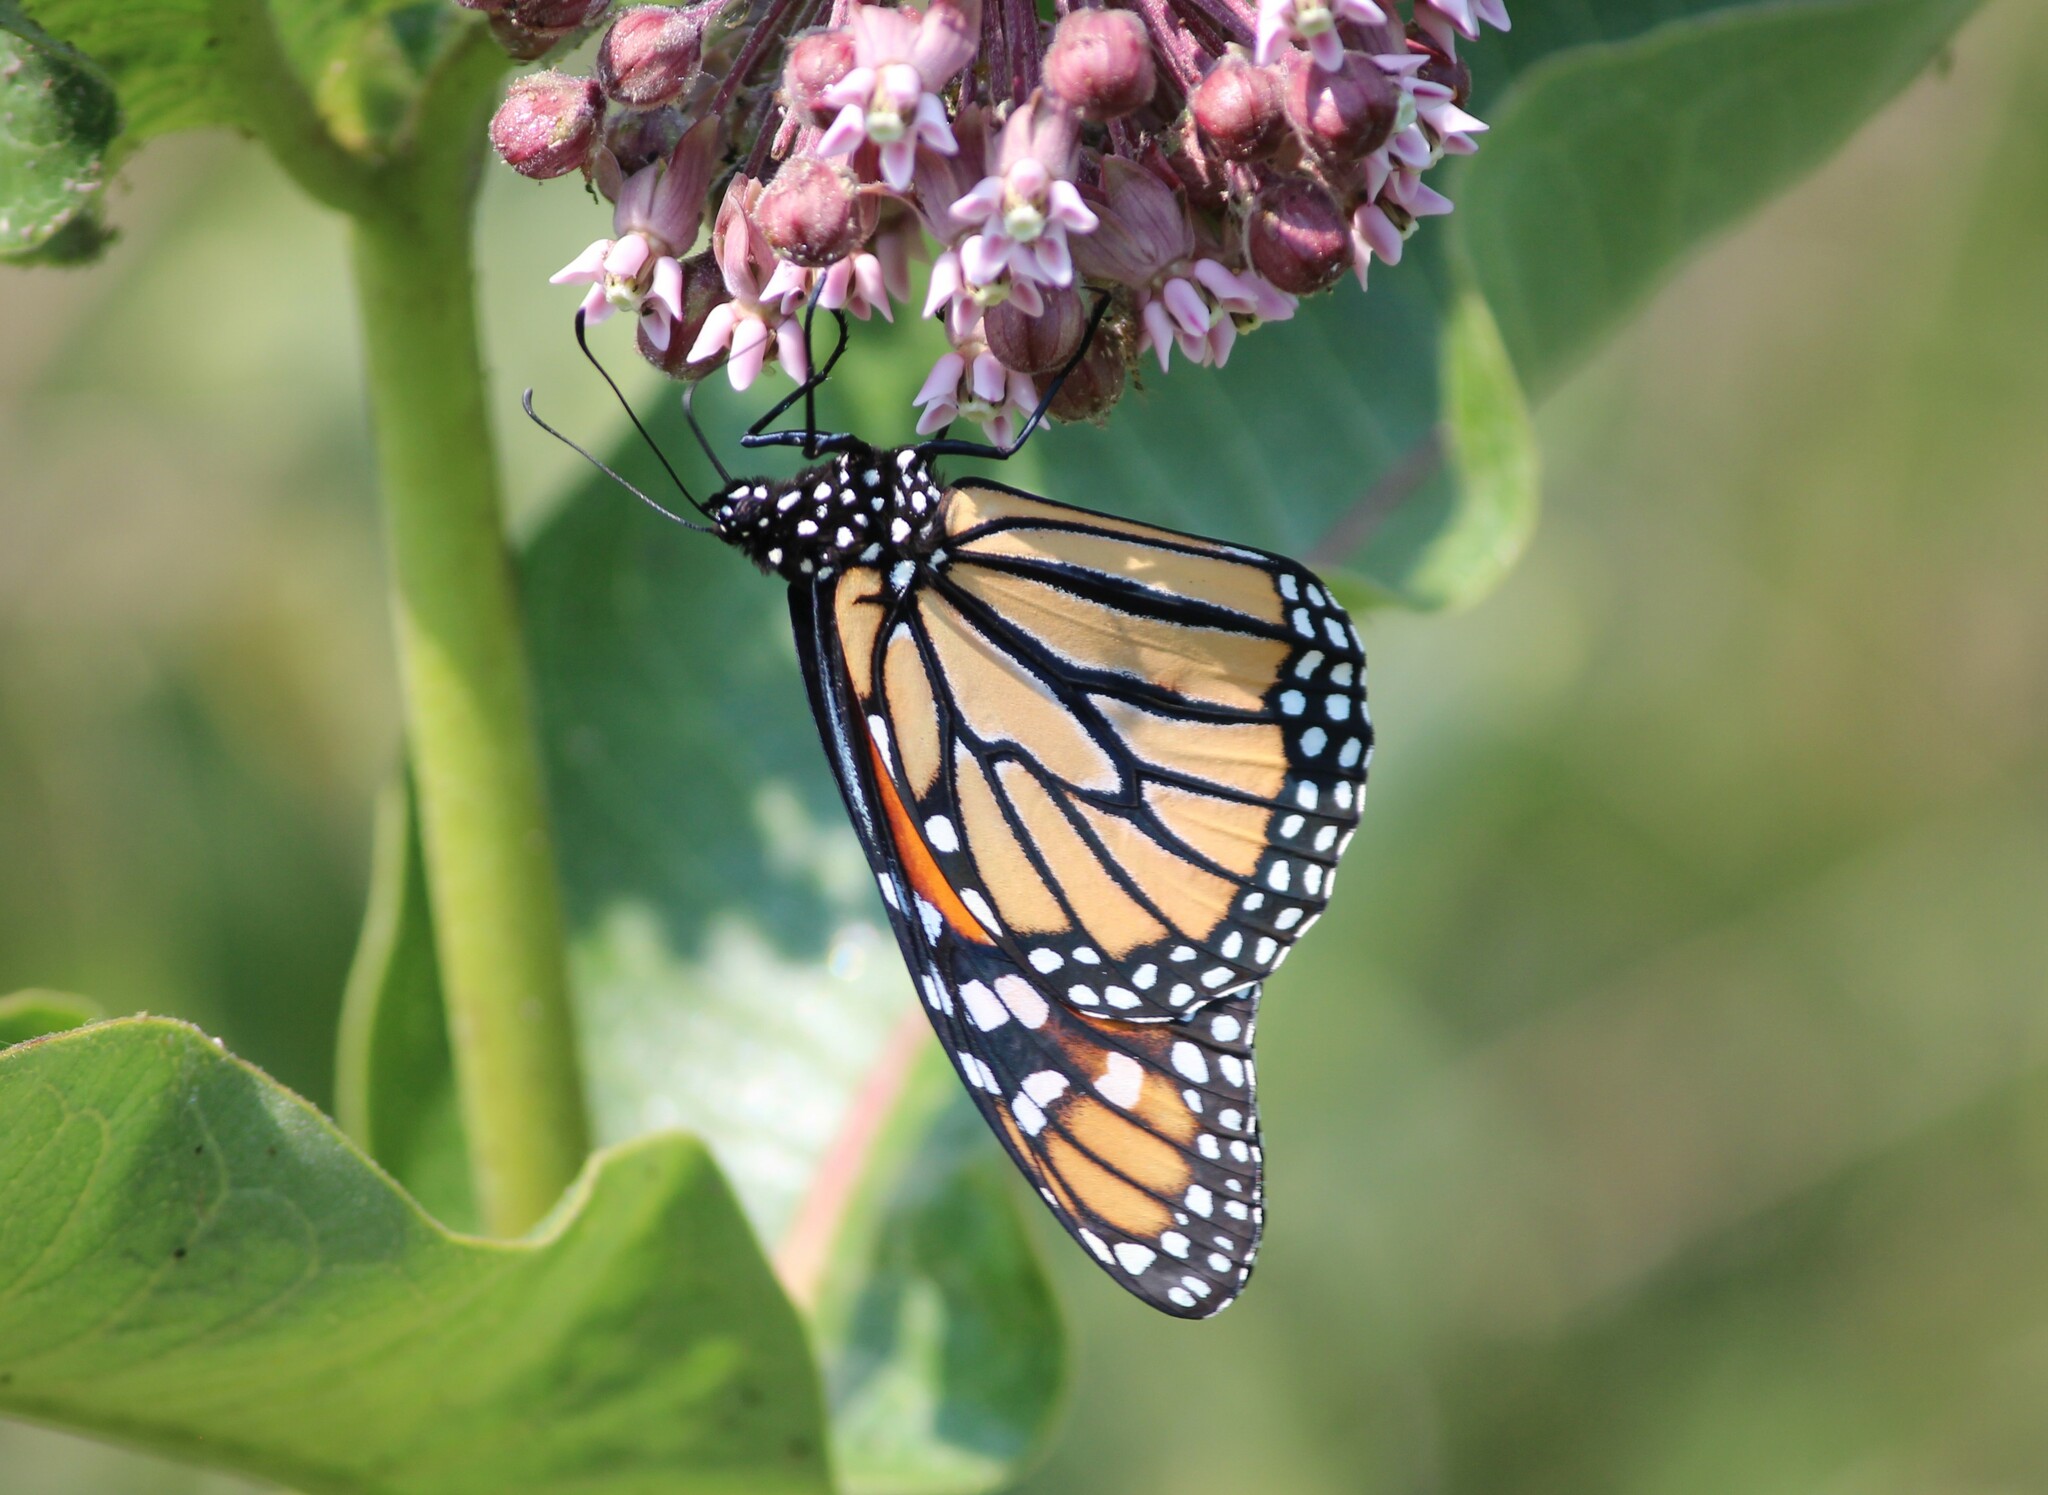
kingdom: Animalia
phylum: Arthropoda
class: Insecta
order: Lepidoptera
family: Nymphalidae
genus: Danaus
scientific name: Danaus plexippus
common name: Monarch
